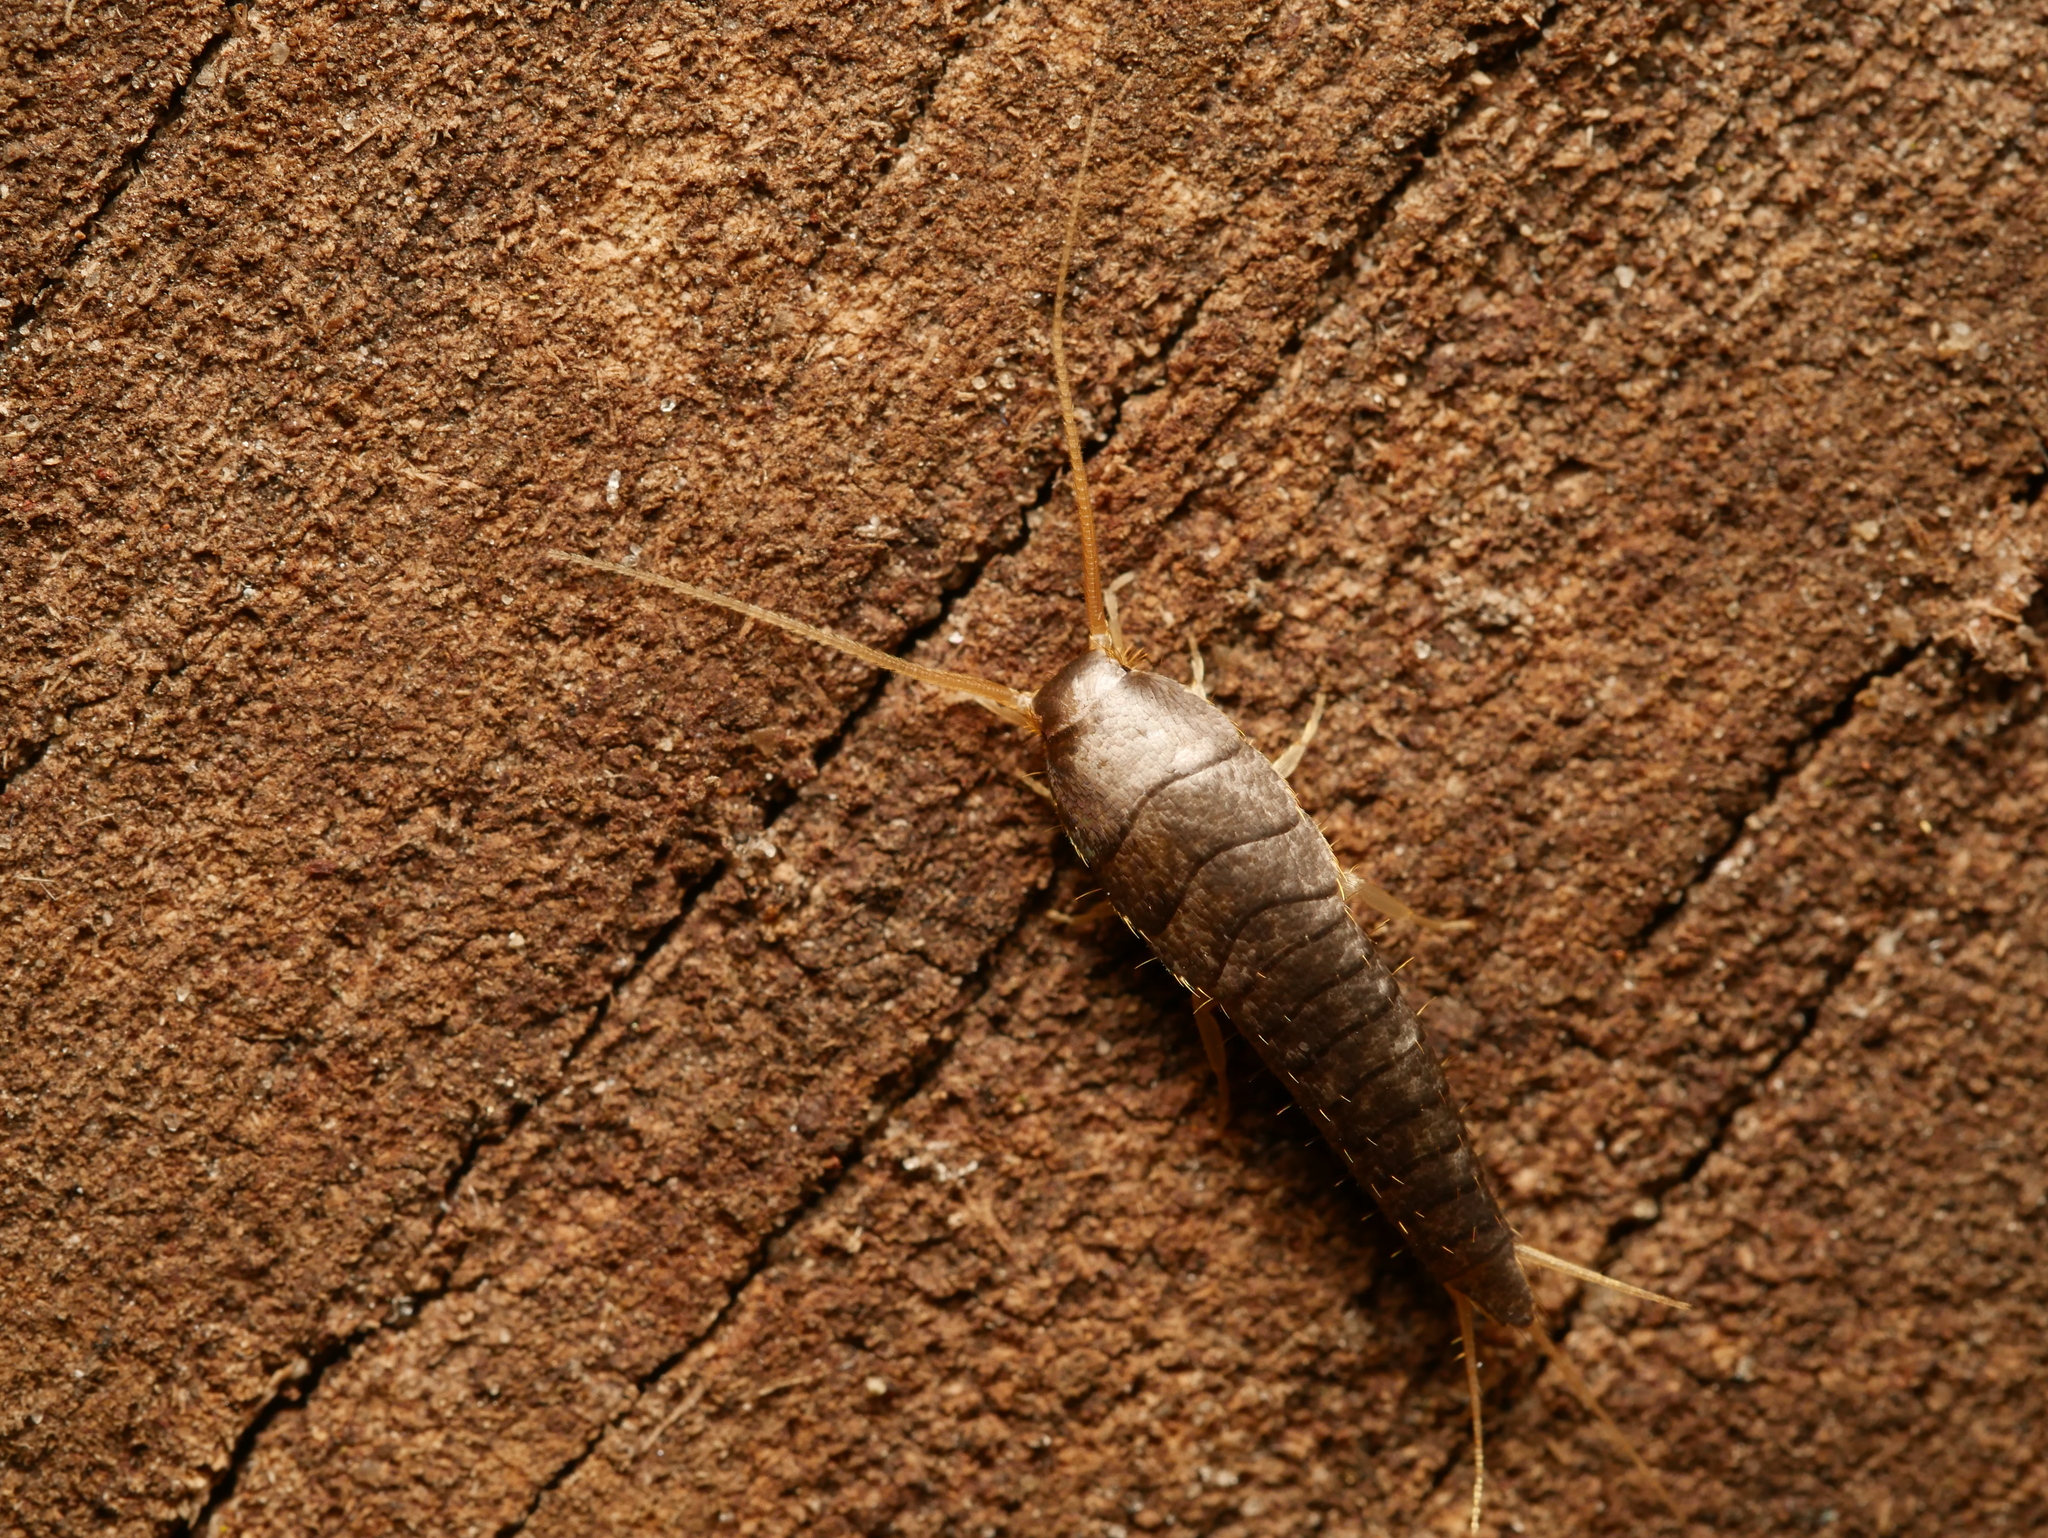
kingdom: Animalia
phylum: Arthropoda
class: Insecta
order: Zygentoma
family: Lepismatidae
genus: Lepisma
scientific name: Lepisma saccharinum
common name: Silverfish
